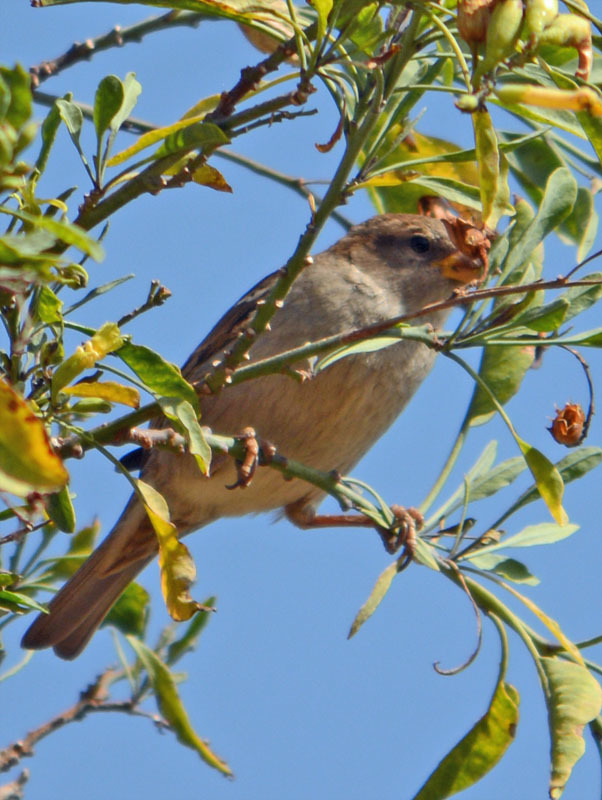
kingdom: Animalia
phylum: Chordata
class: Aves
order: Passeriformes
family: Passeridae
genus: Passer
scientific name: Passer domesticus
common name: House sparrow
